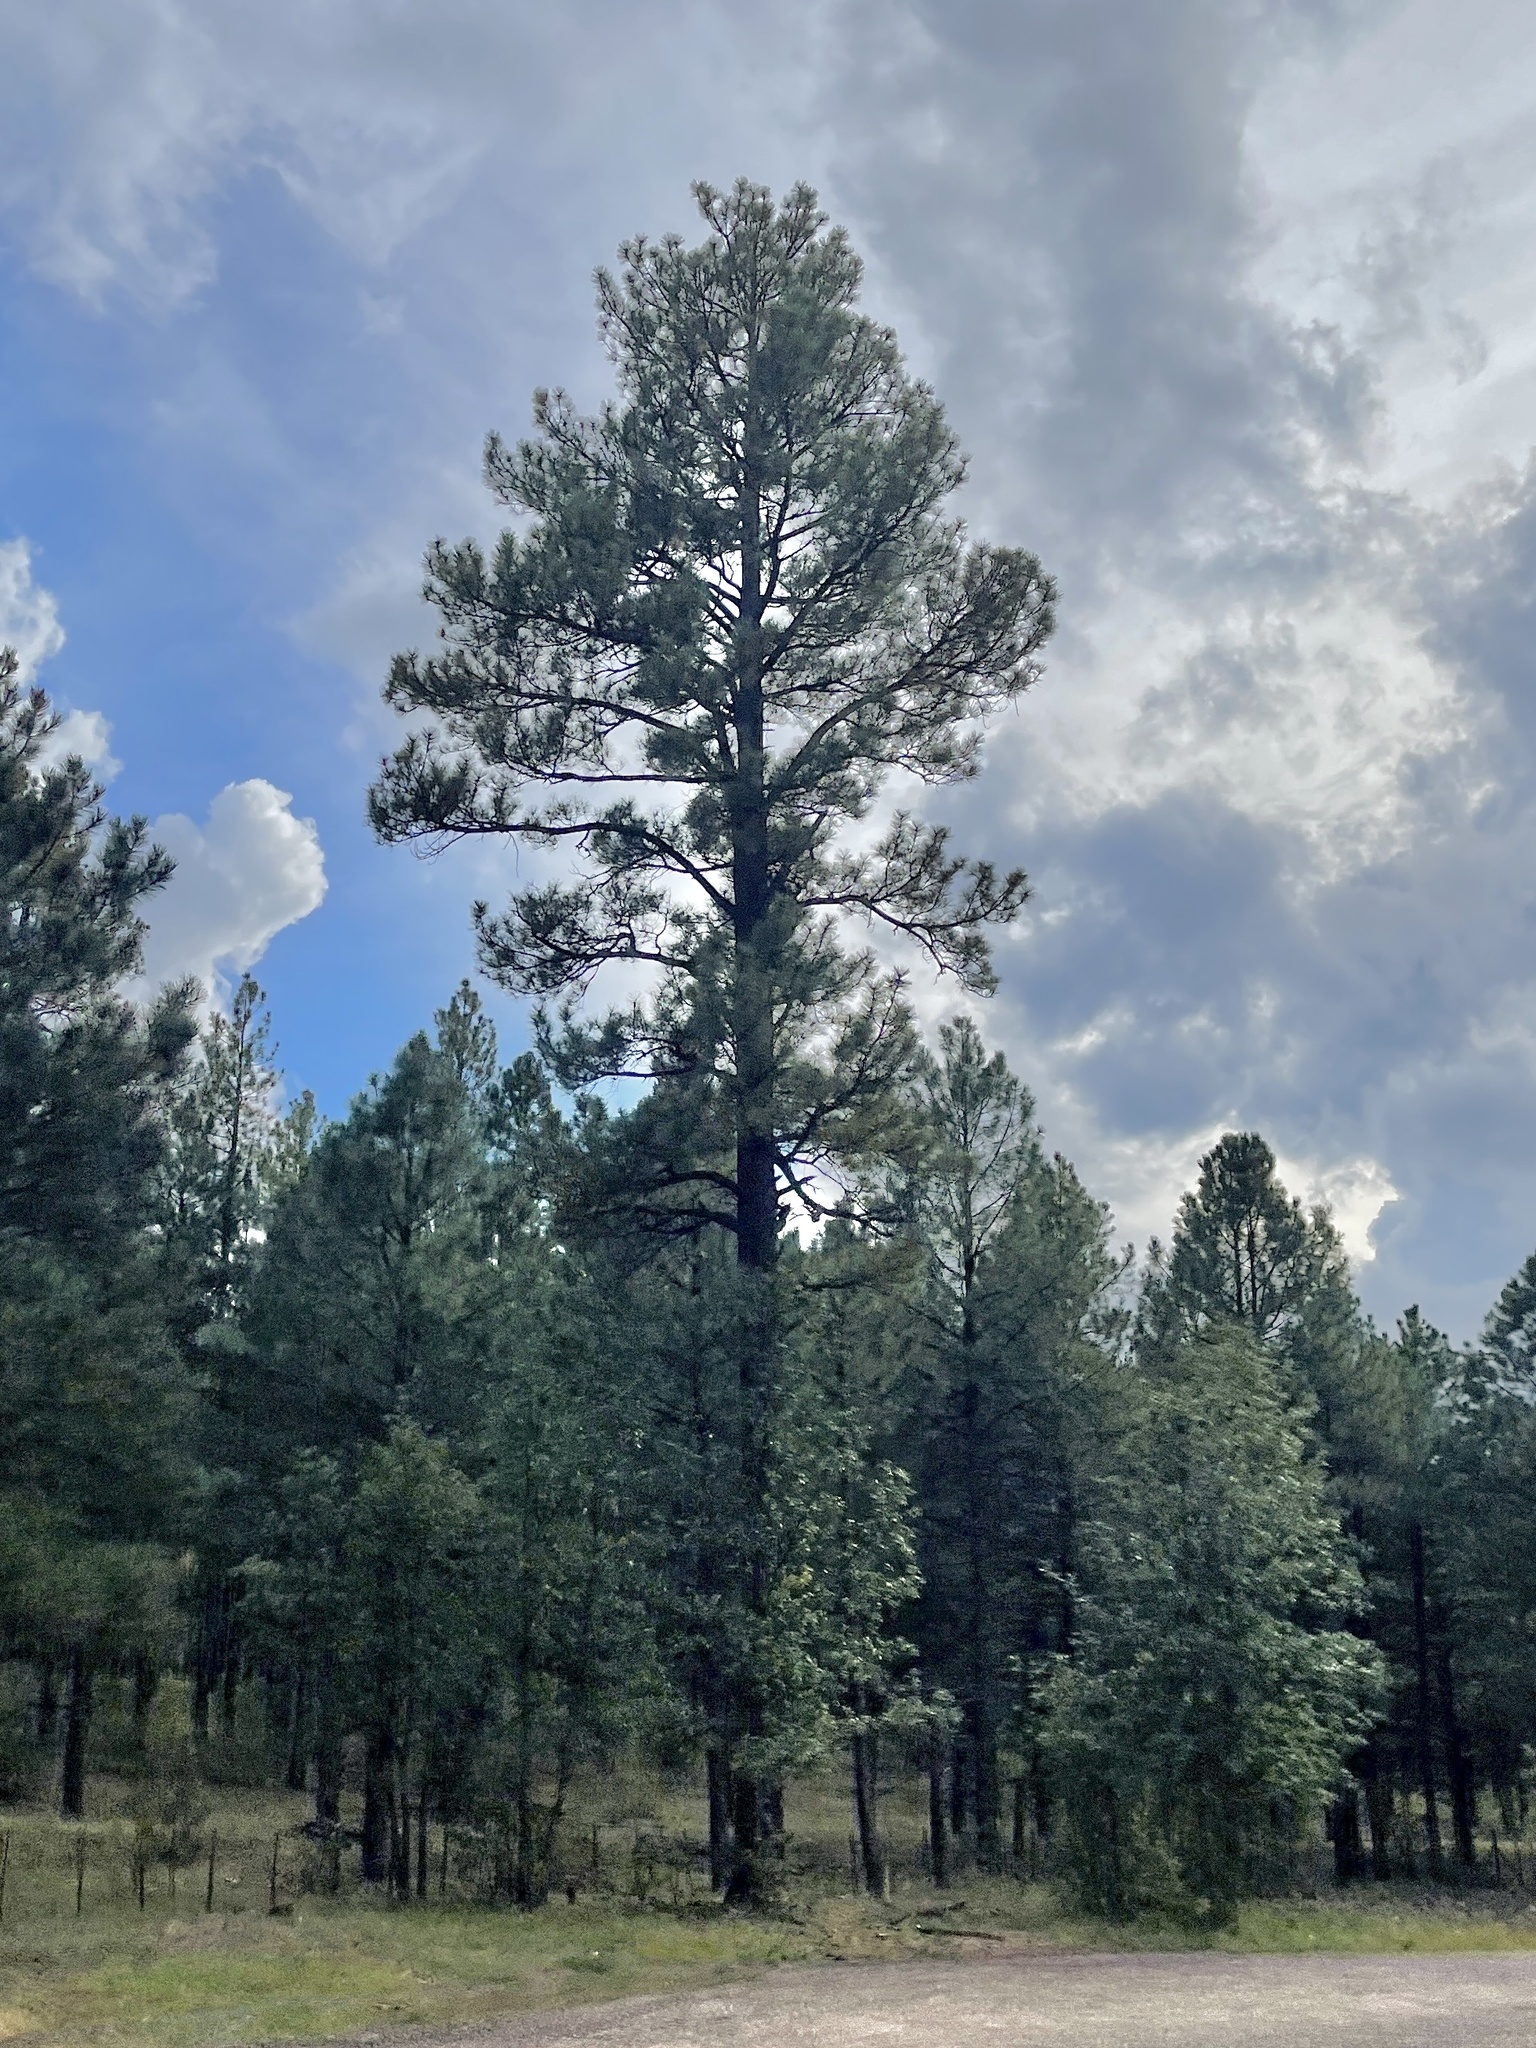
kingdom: Plantae
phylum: Tracheophyta
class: Pinopsida
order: Pinales
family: Pinaceae
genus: Pinus
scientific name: Pinus ponderosa
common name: Western yellow-pine
